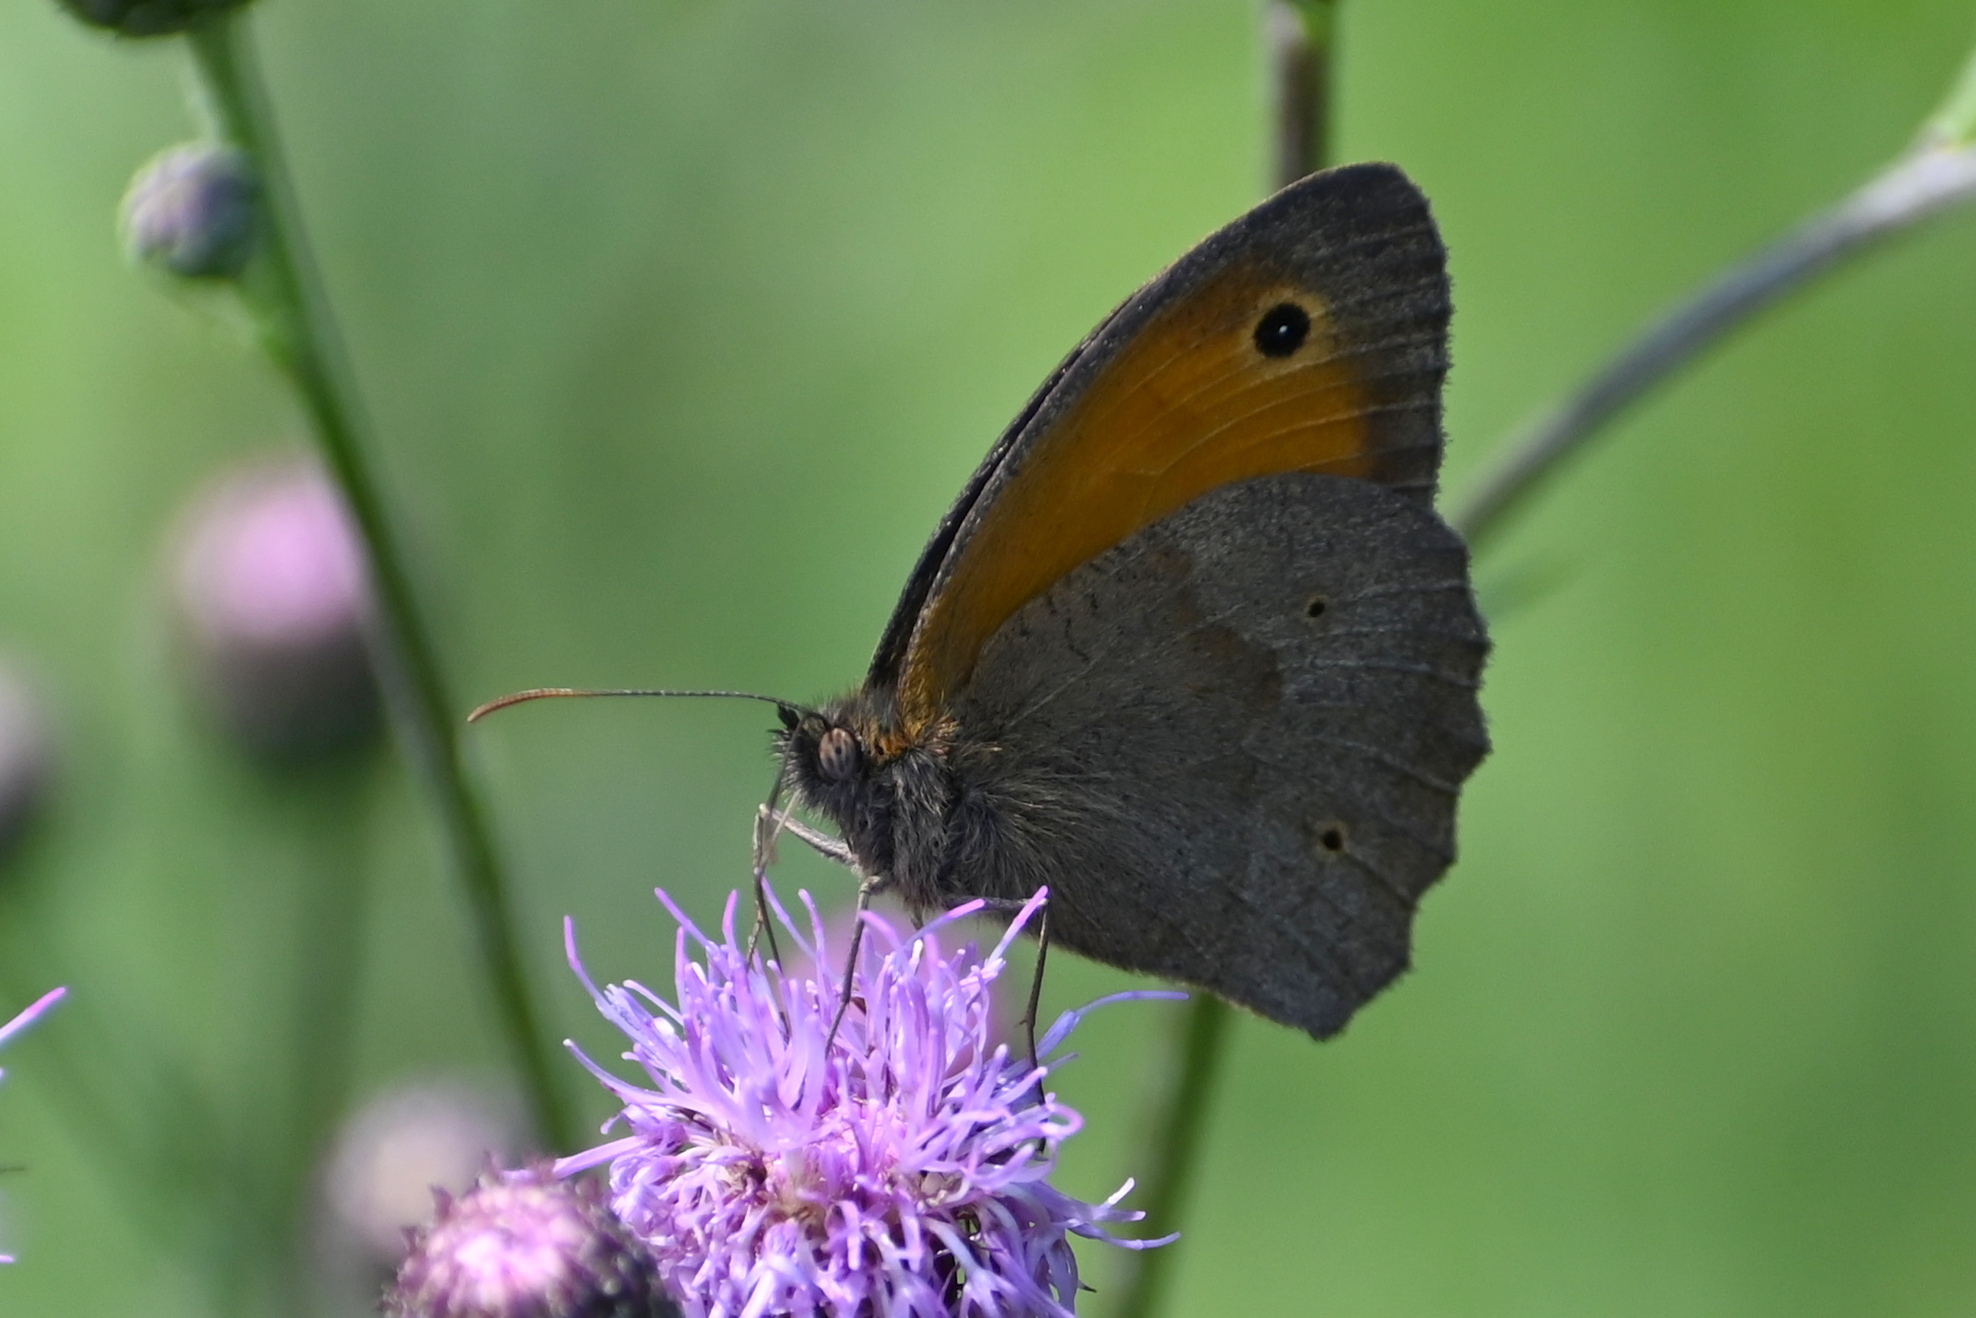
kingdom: Animalia
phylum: Arthropoda
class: Insecta
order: Lepidoptera
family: Nymphalidae
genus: Maniola
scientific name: Maniola jurtina
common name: Meadow brown
